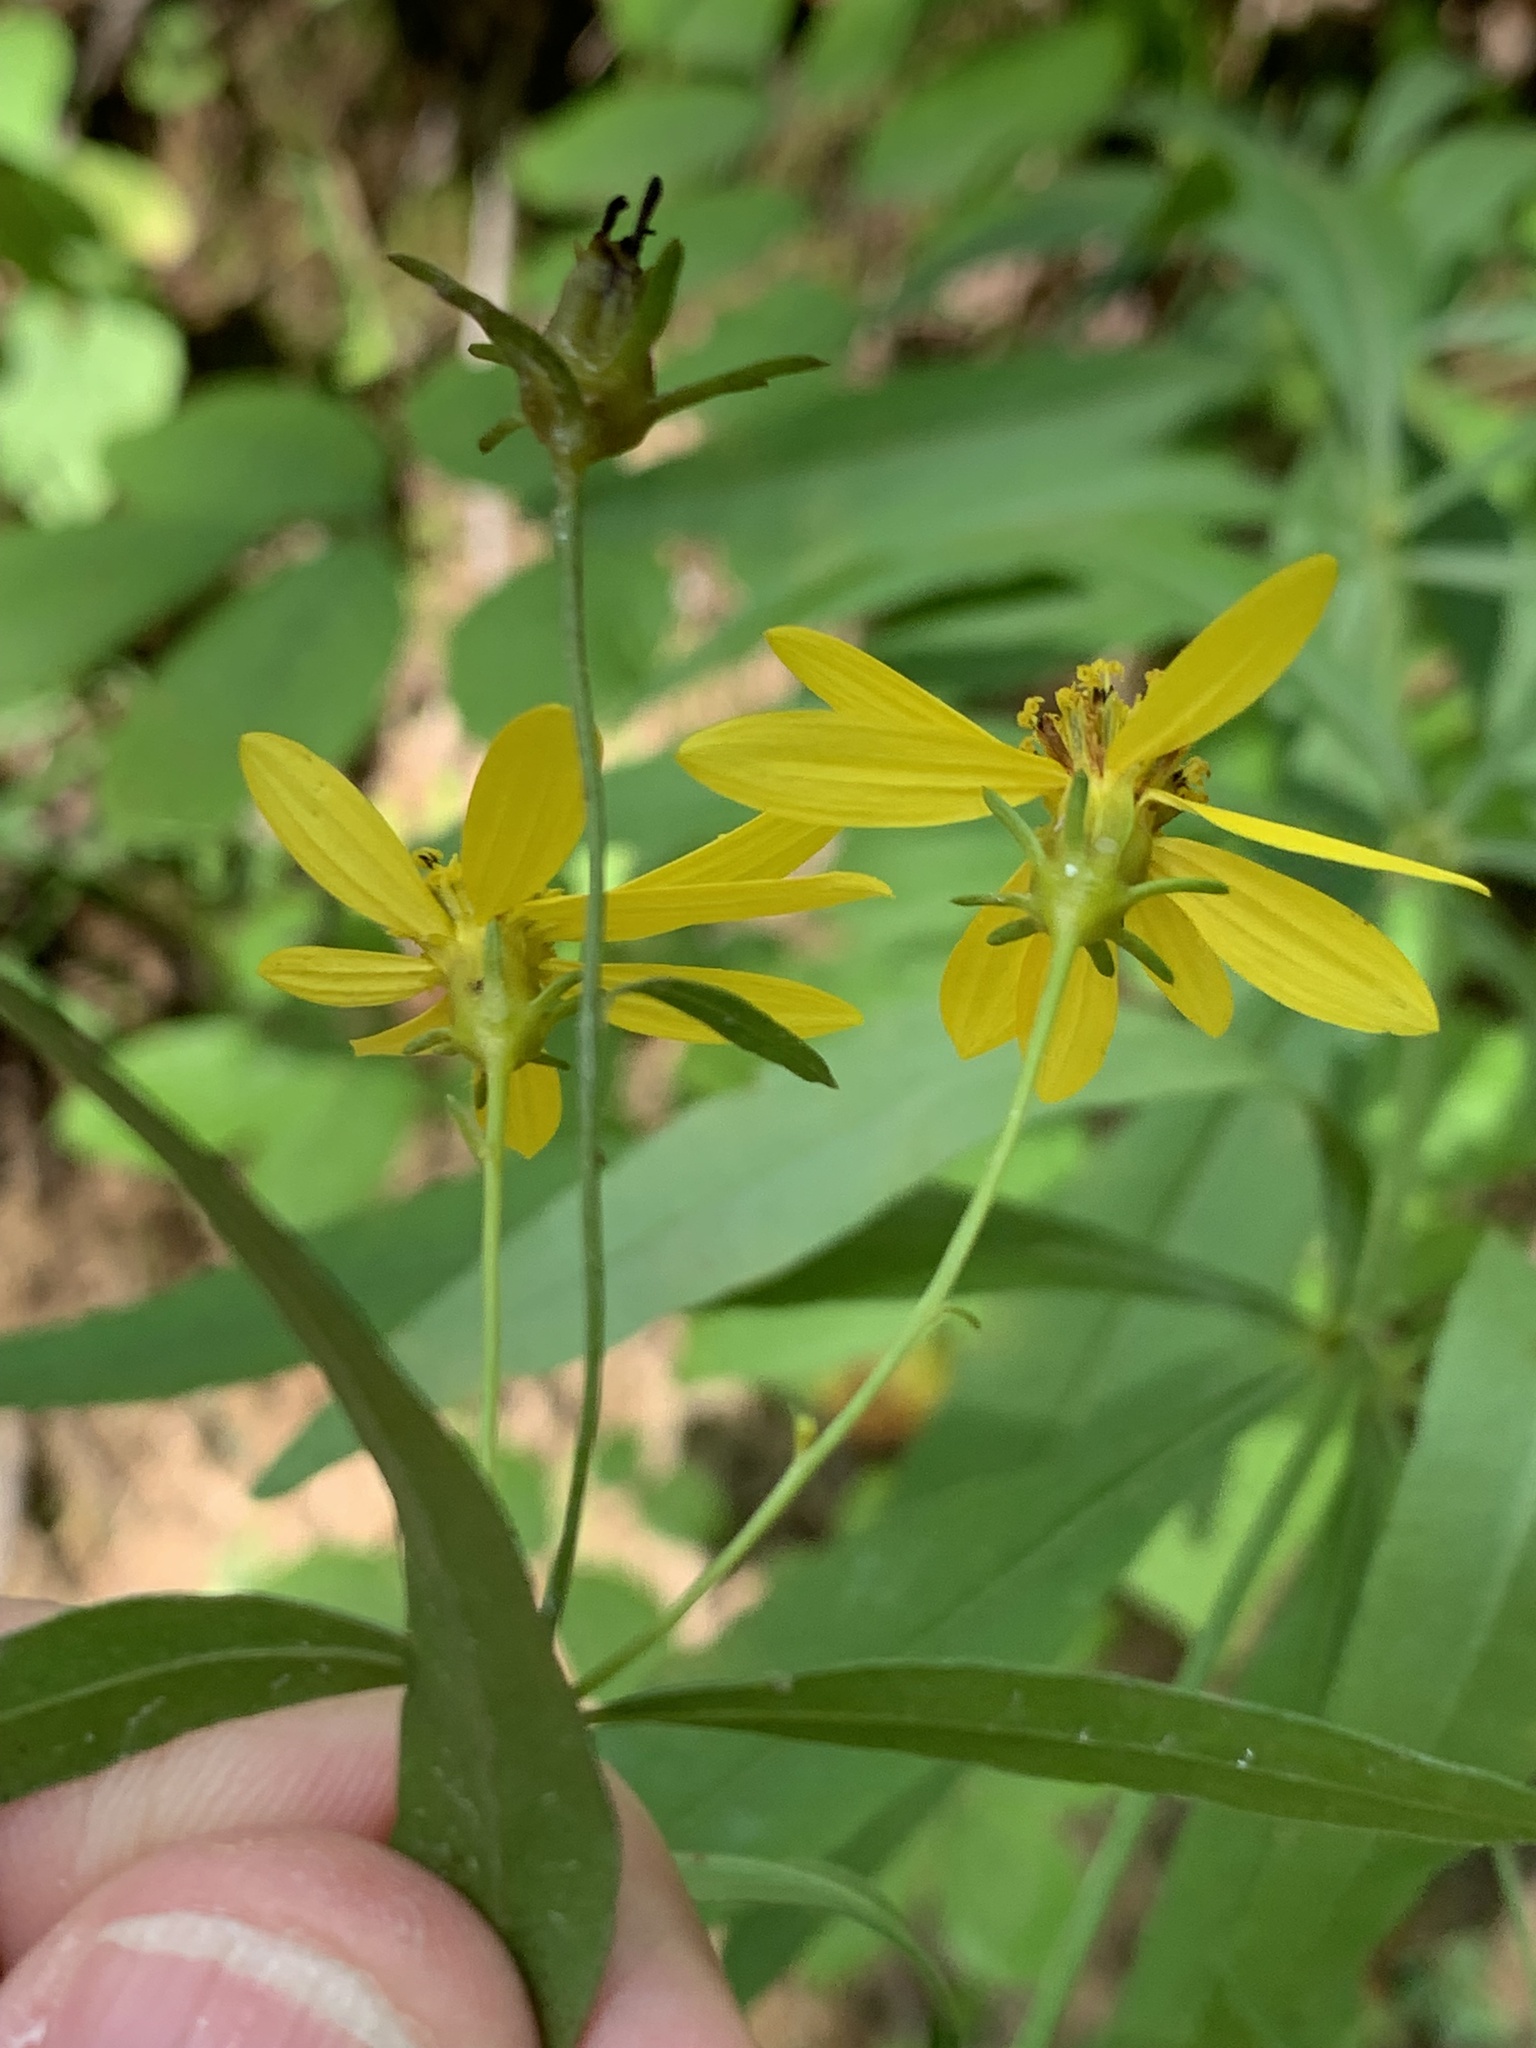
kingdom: Plantae
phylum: Tracheophyta
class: Magnoliopsida
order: Asterales
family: Asteraceae
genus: Coreopsis
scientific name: Coreopsis major
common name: Forest tickseed
